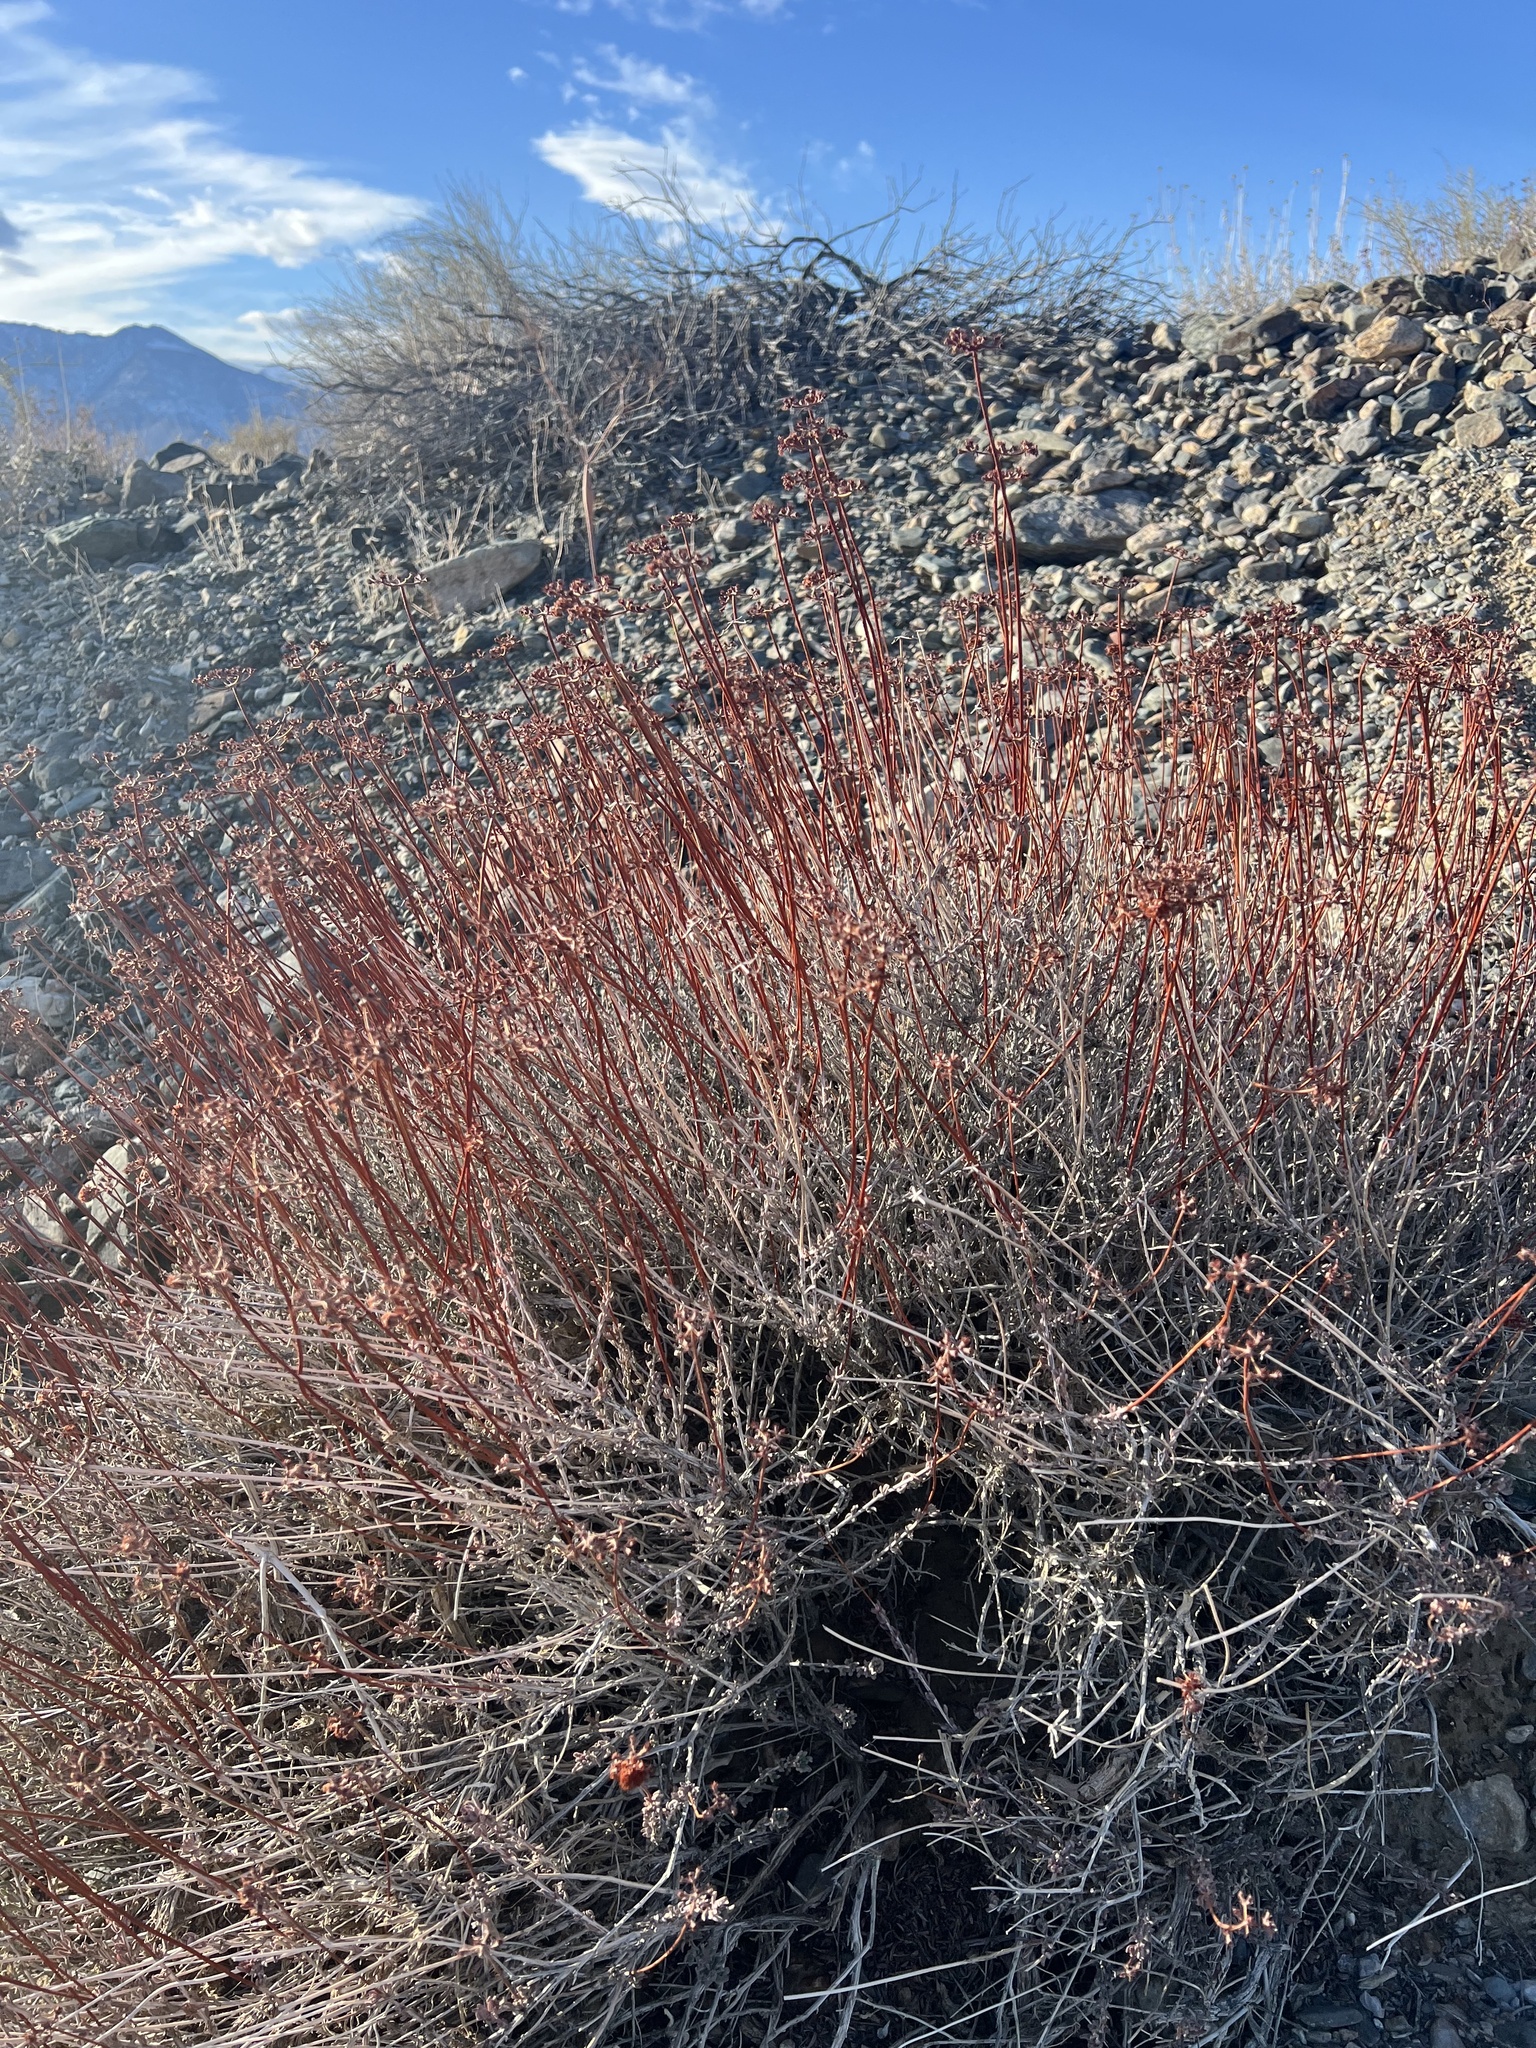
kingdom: Plantae
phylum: Tracheophyta
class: Magnoliopsida
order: Caryophyllales
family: Polygonaceae
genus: Eriogonum
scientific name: Eriogonum fasciculatum
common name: California wild buckwheat
